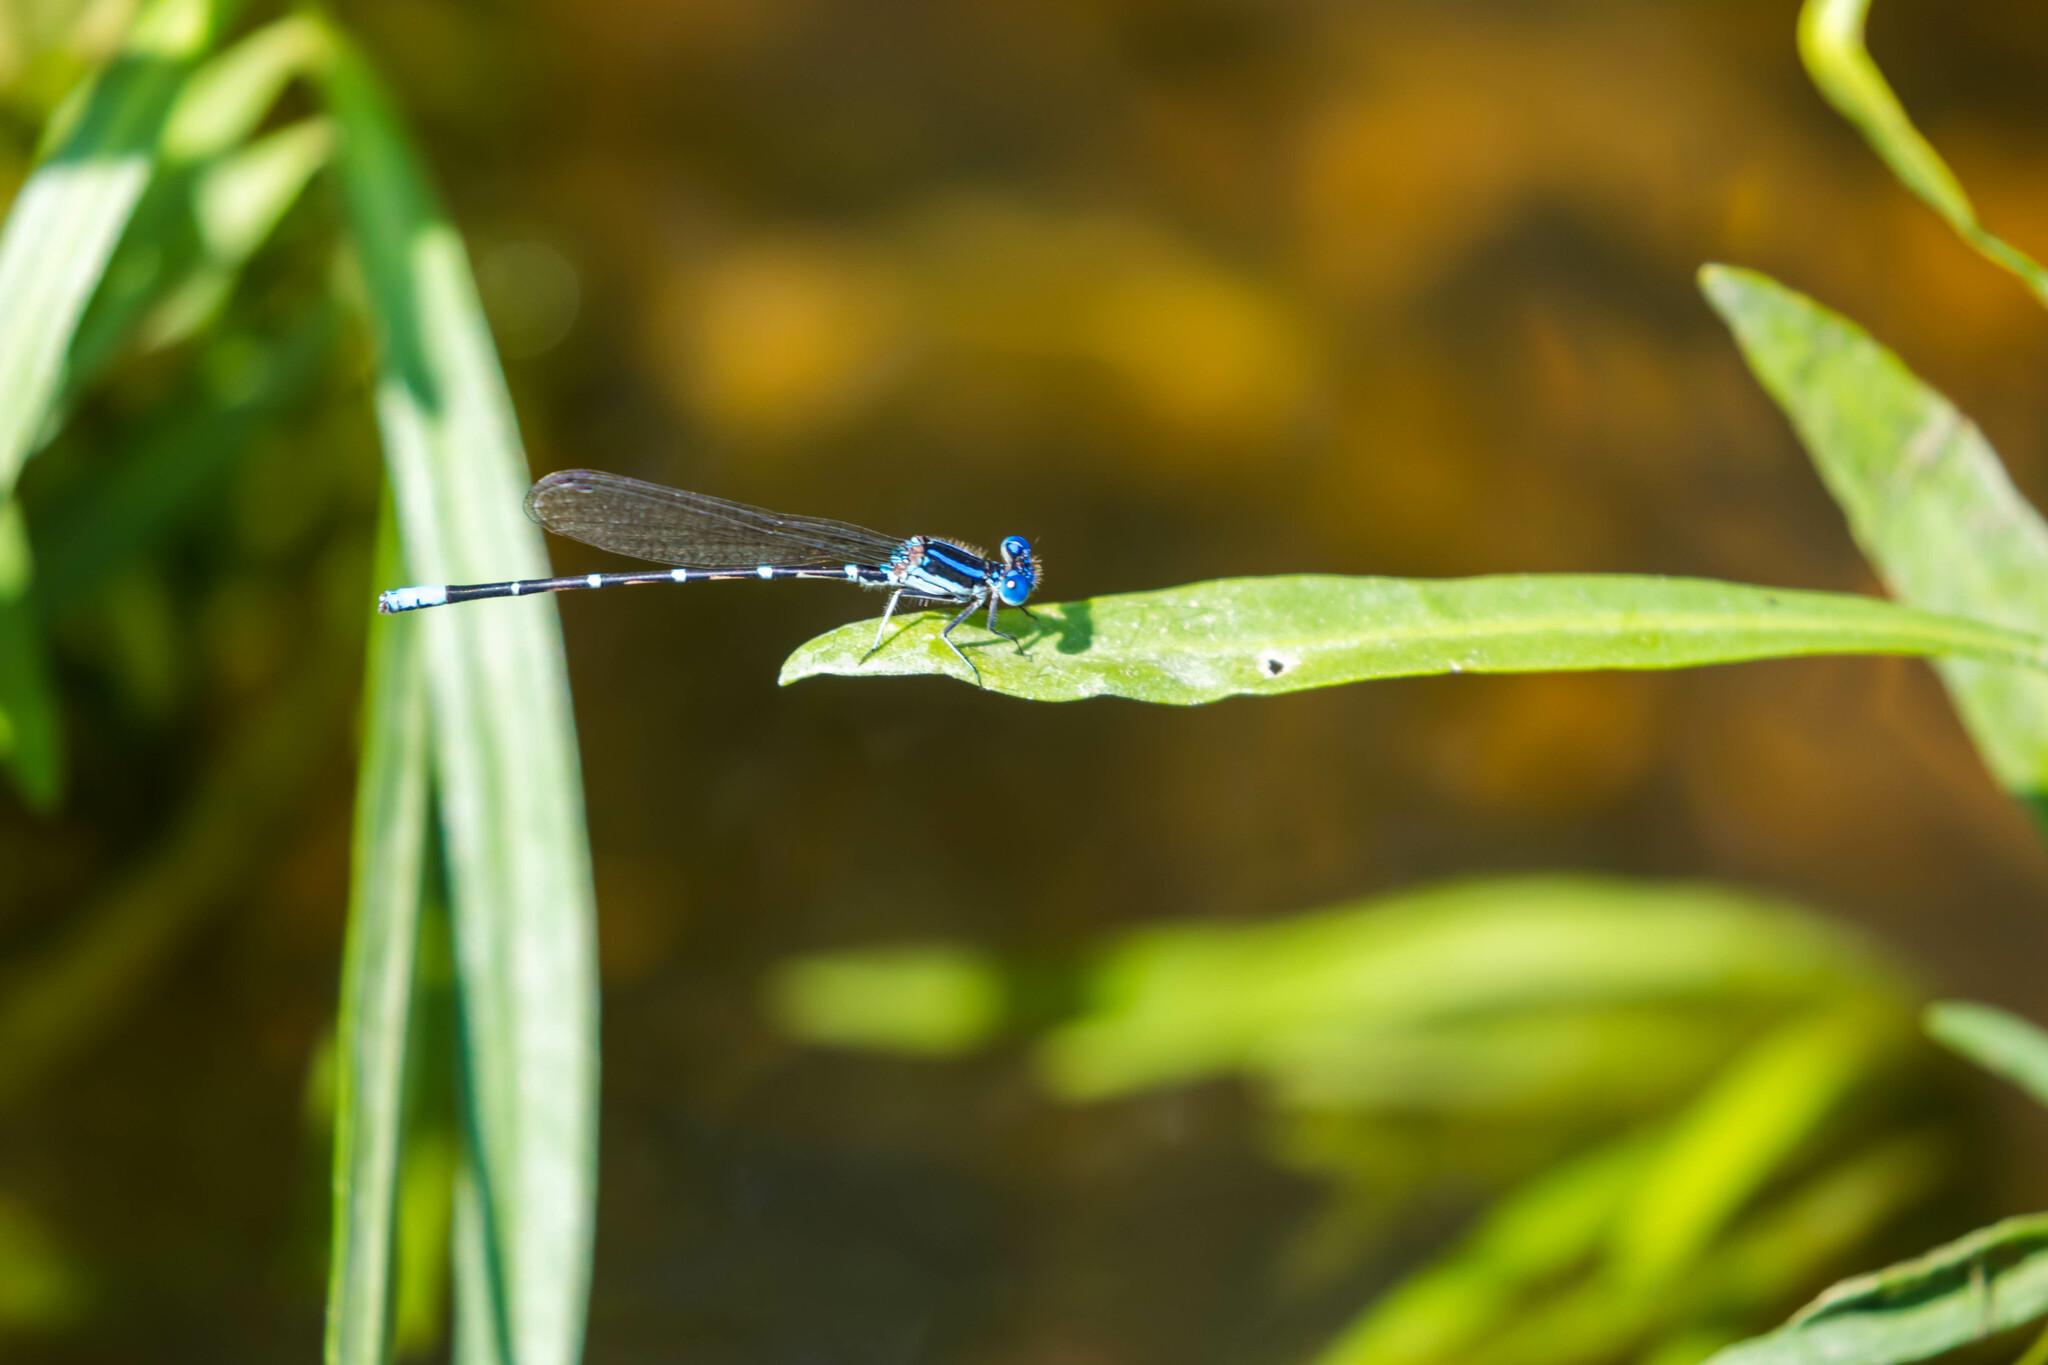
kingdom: Animalia
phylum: Arthropoda
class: Insecta
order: Odonata
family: Coenagrionidae
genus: Argia
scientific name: Argia sedula
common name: Blue-ringed dancer
